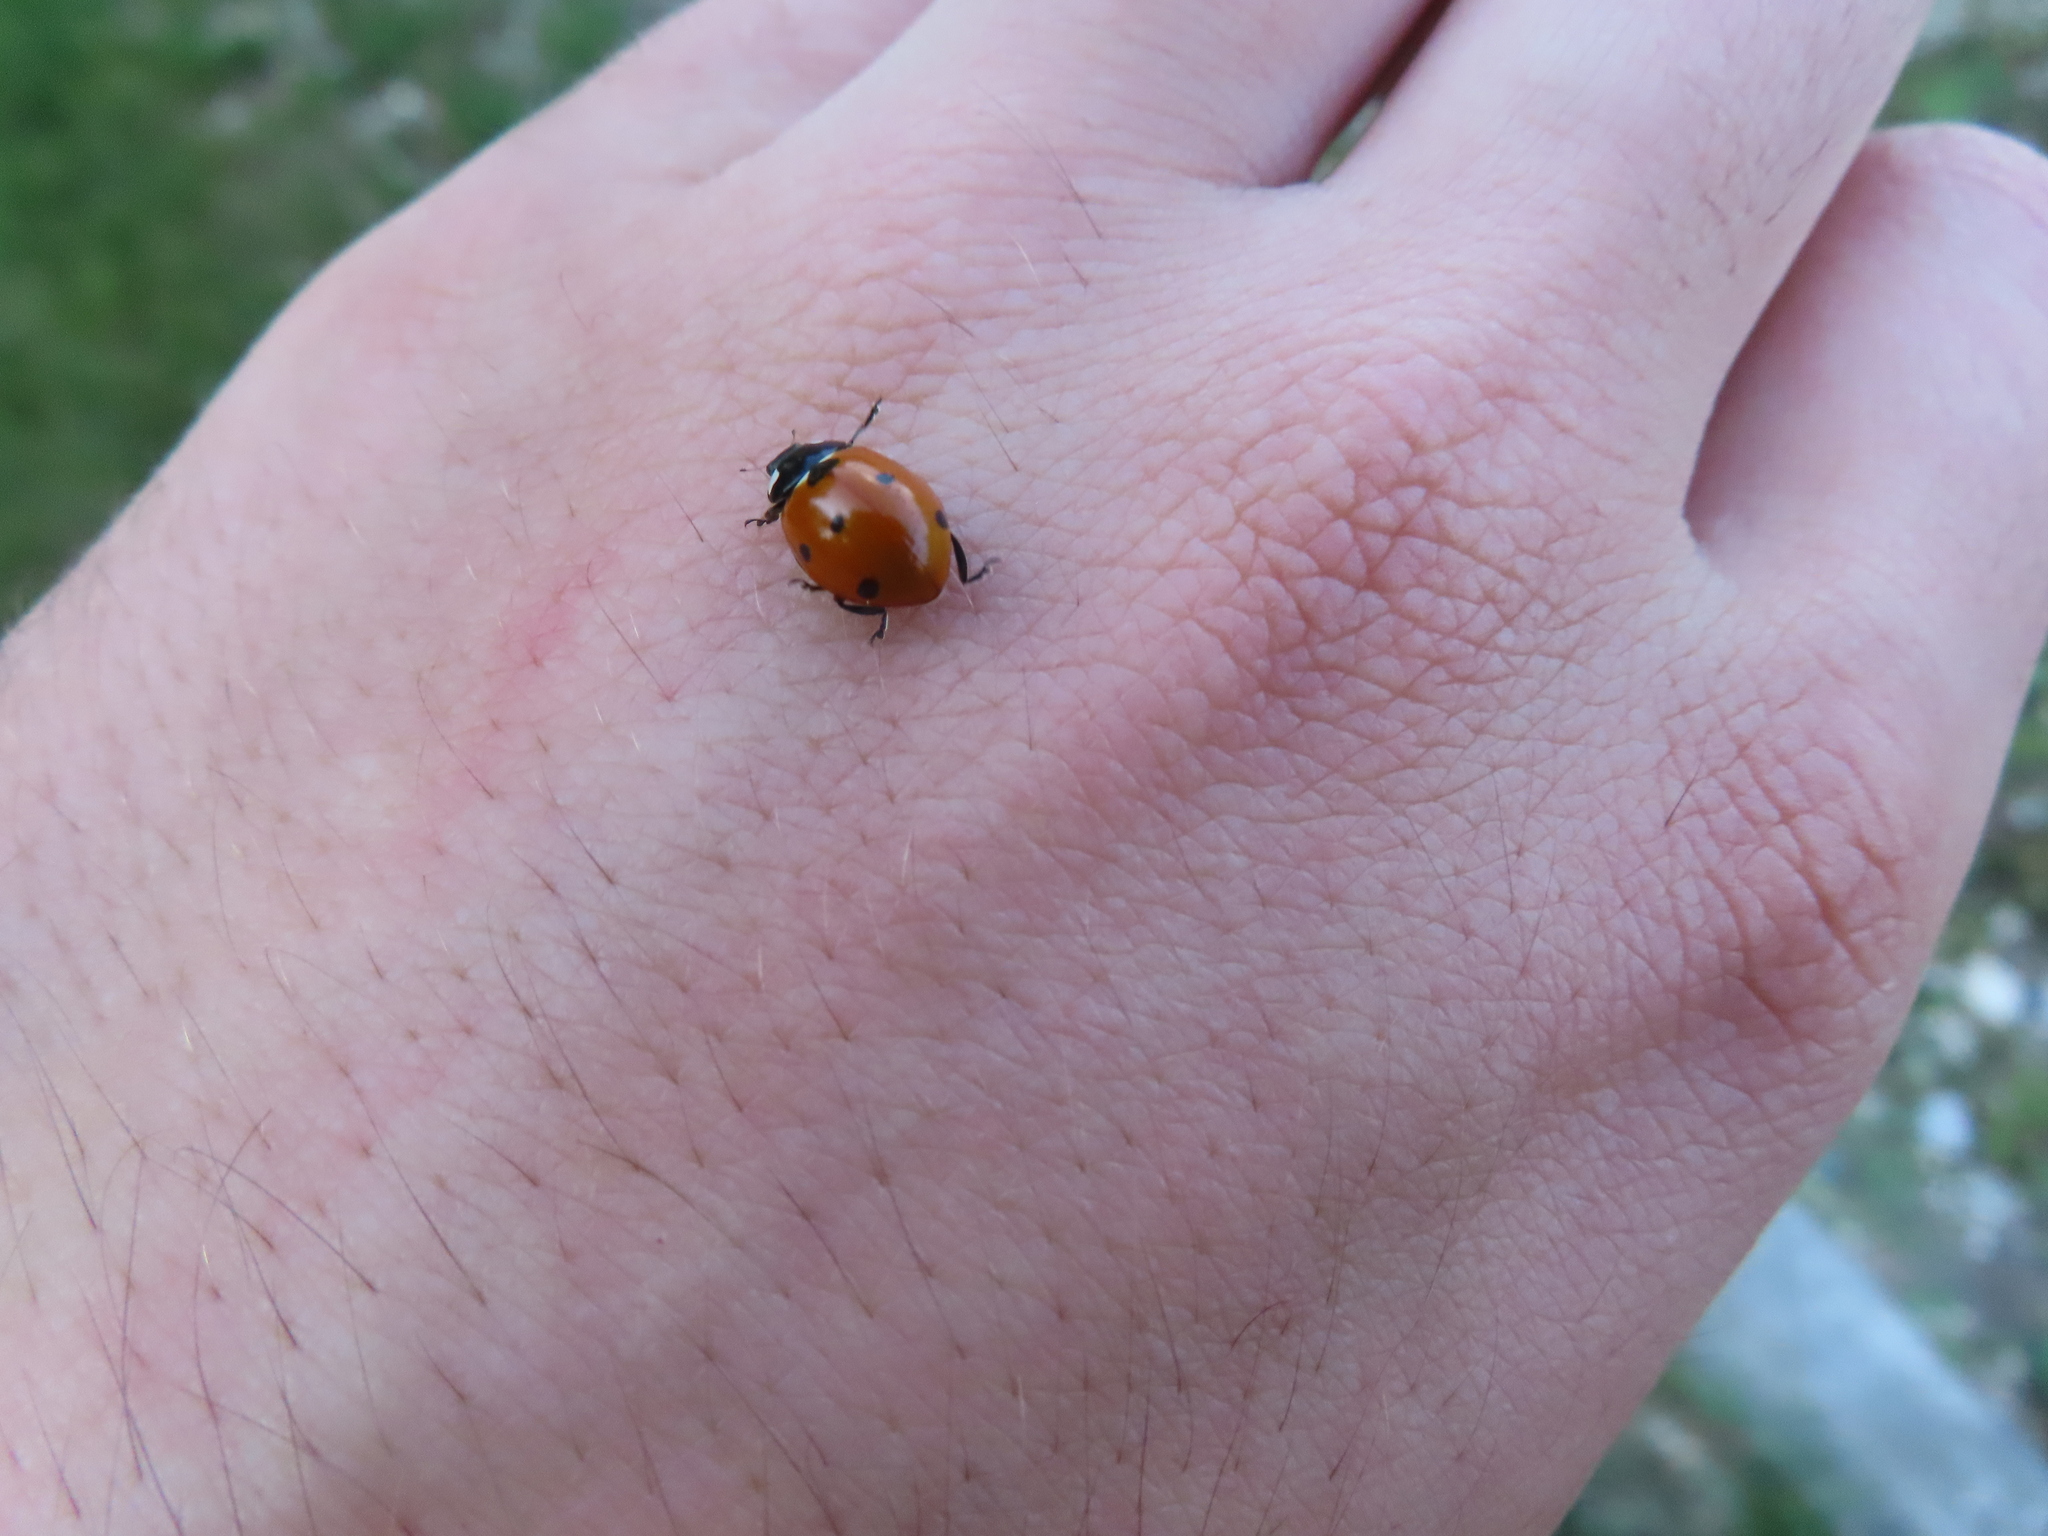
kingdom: Animalia
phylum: Arthropoda
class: Insecta
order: Coleoptera
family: Coccinellidae
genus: Coccinella
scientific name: Coccinella septempunctata
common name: Sevenspotted lady beetle
